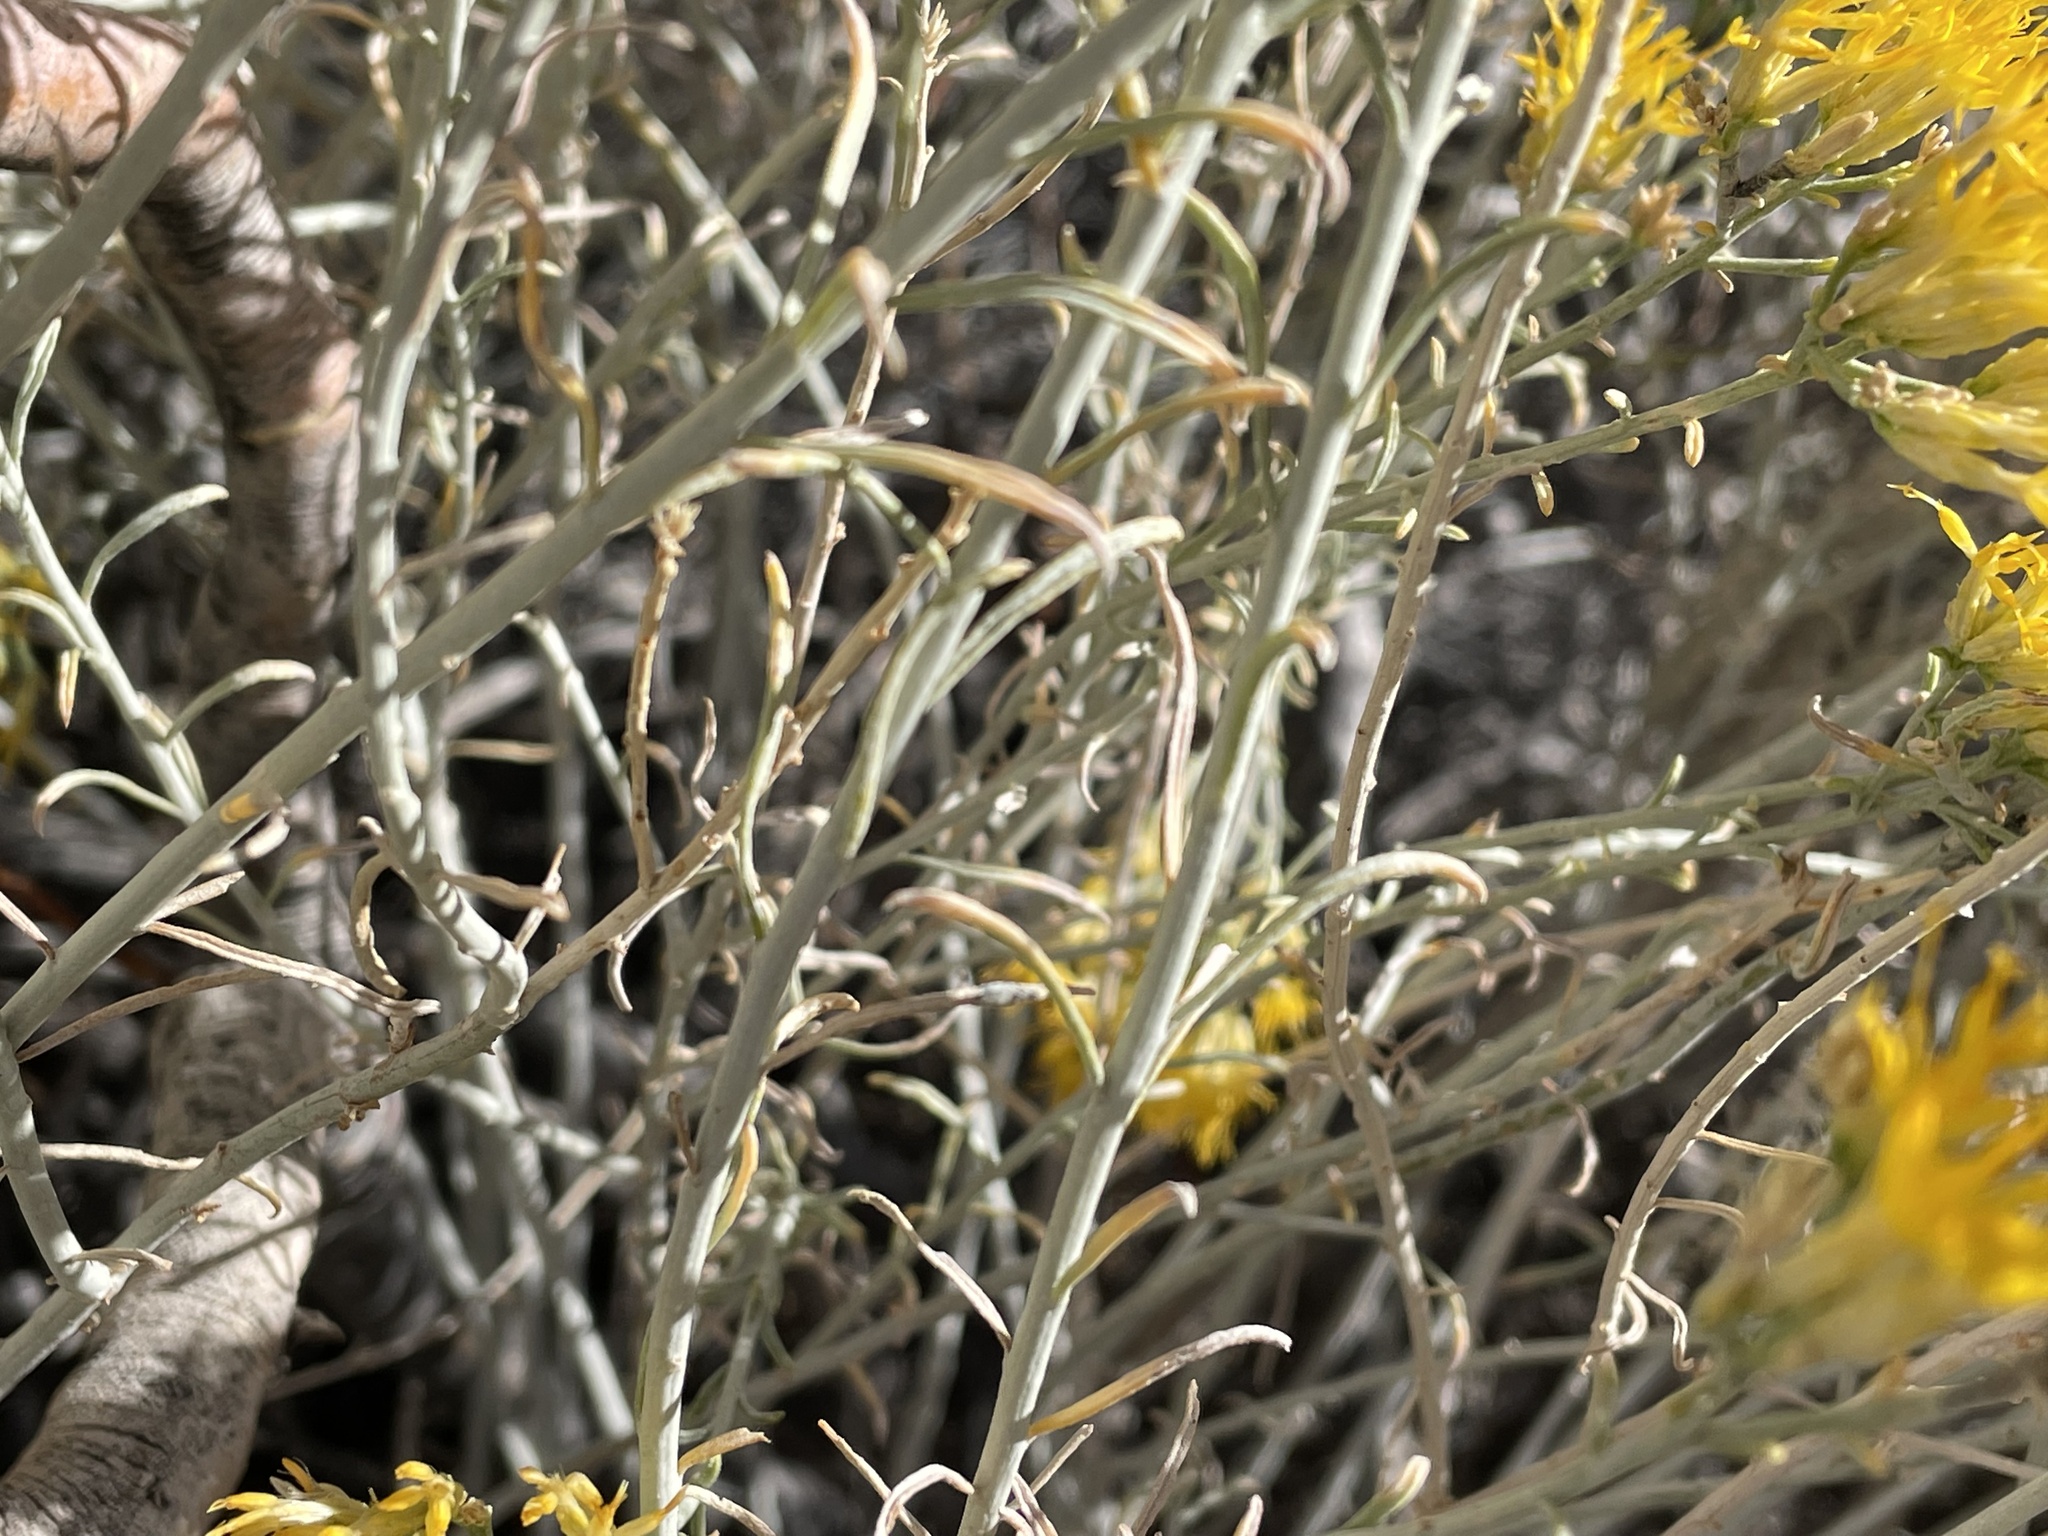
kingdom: Plantae
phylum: Tracheophyta
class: Magnoliopsida
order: Asterales
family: Asteraceae
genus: Ericameria
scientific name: Ericameria nauseosa
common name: Rubber rabbitbrush
